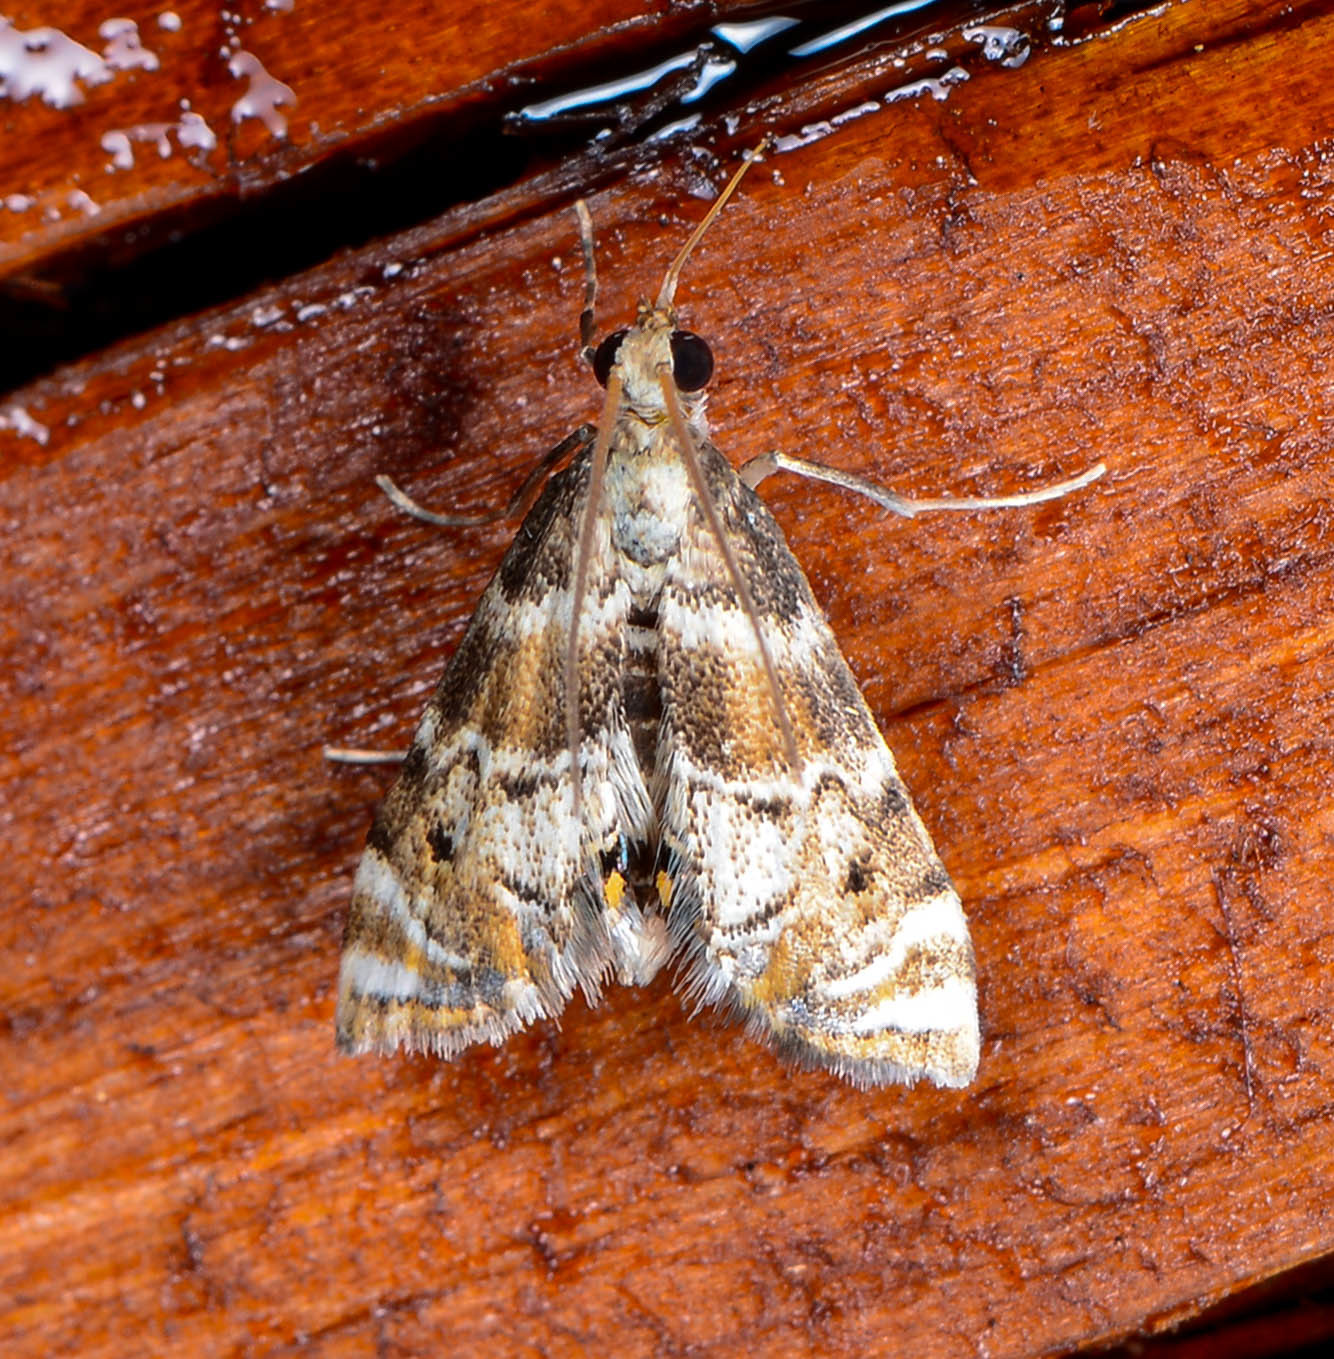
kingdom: Animalia
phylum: Arthropoda
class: Insecta
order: Lepidoptera
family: Crambidae
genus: Petrophila
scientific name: Petrophila fulicalis
